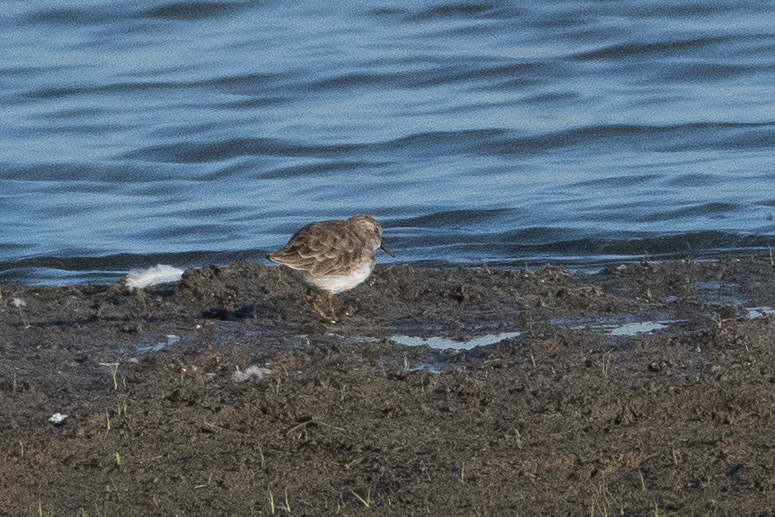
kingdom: Animalia
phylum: Chordata
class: Aves
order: Charadriiformes
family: Scolopacidae
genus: Calidris
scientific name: Calidris minutilla
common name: Least sandpiper
